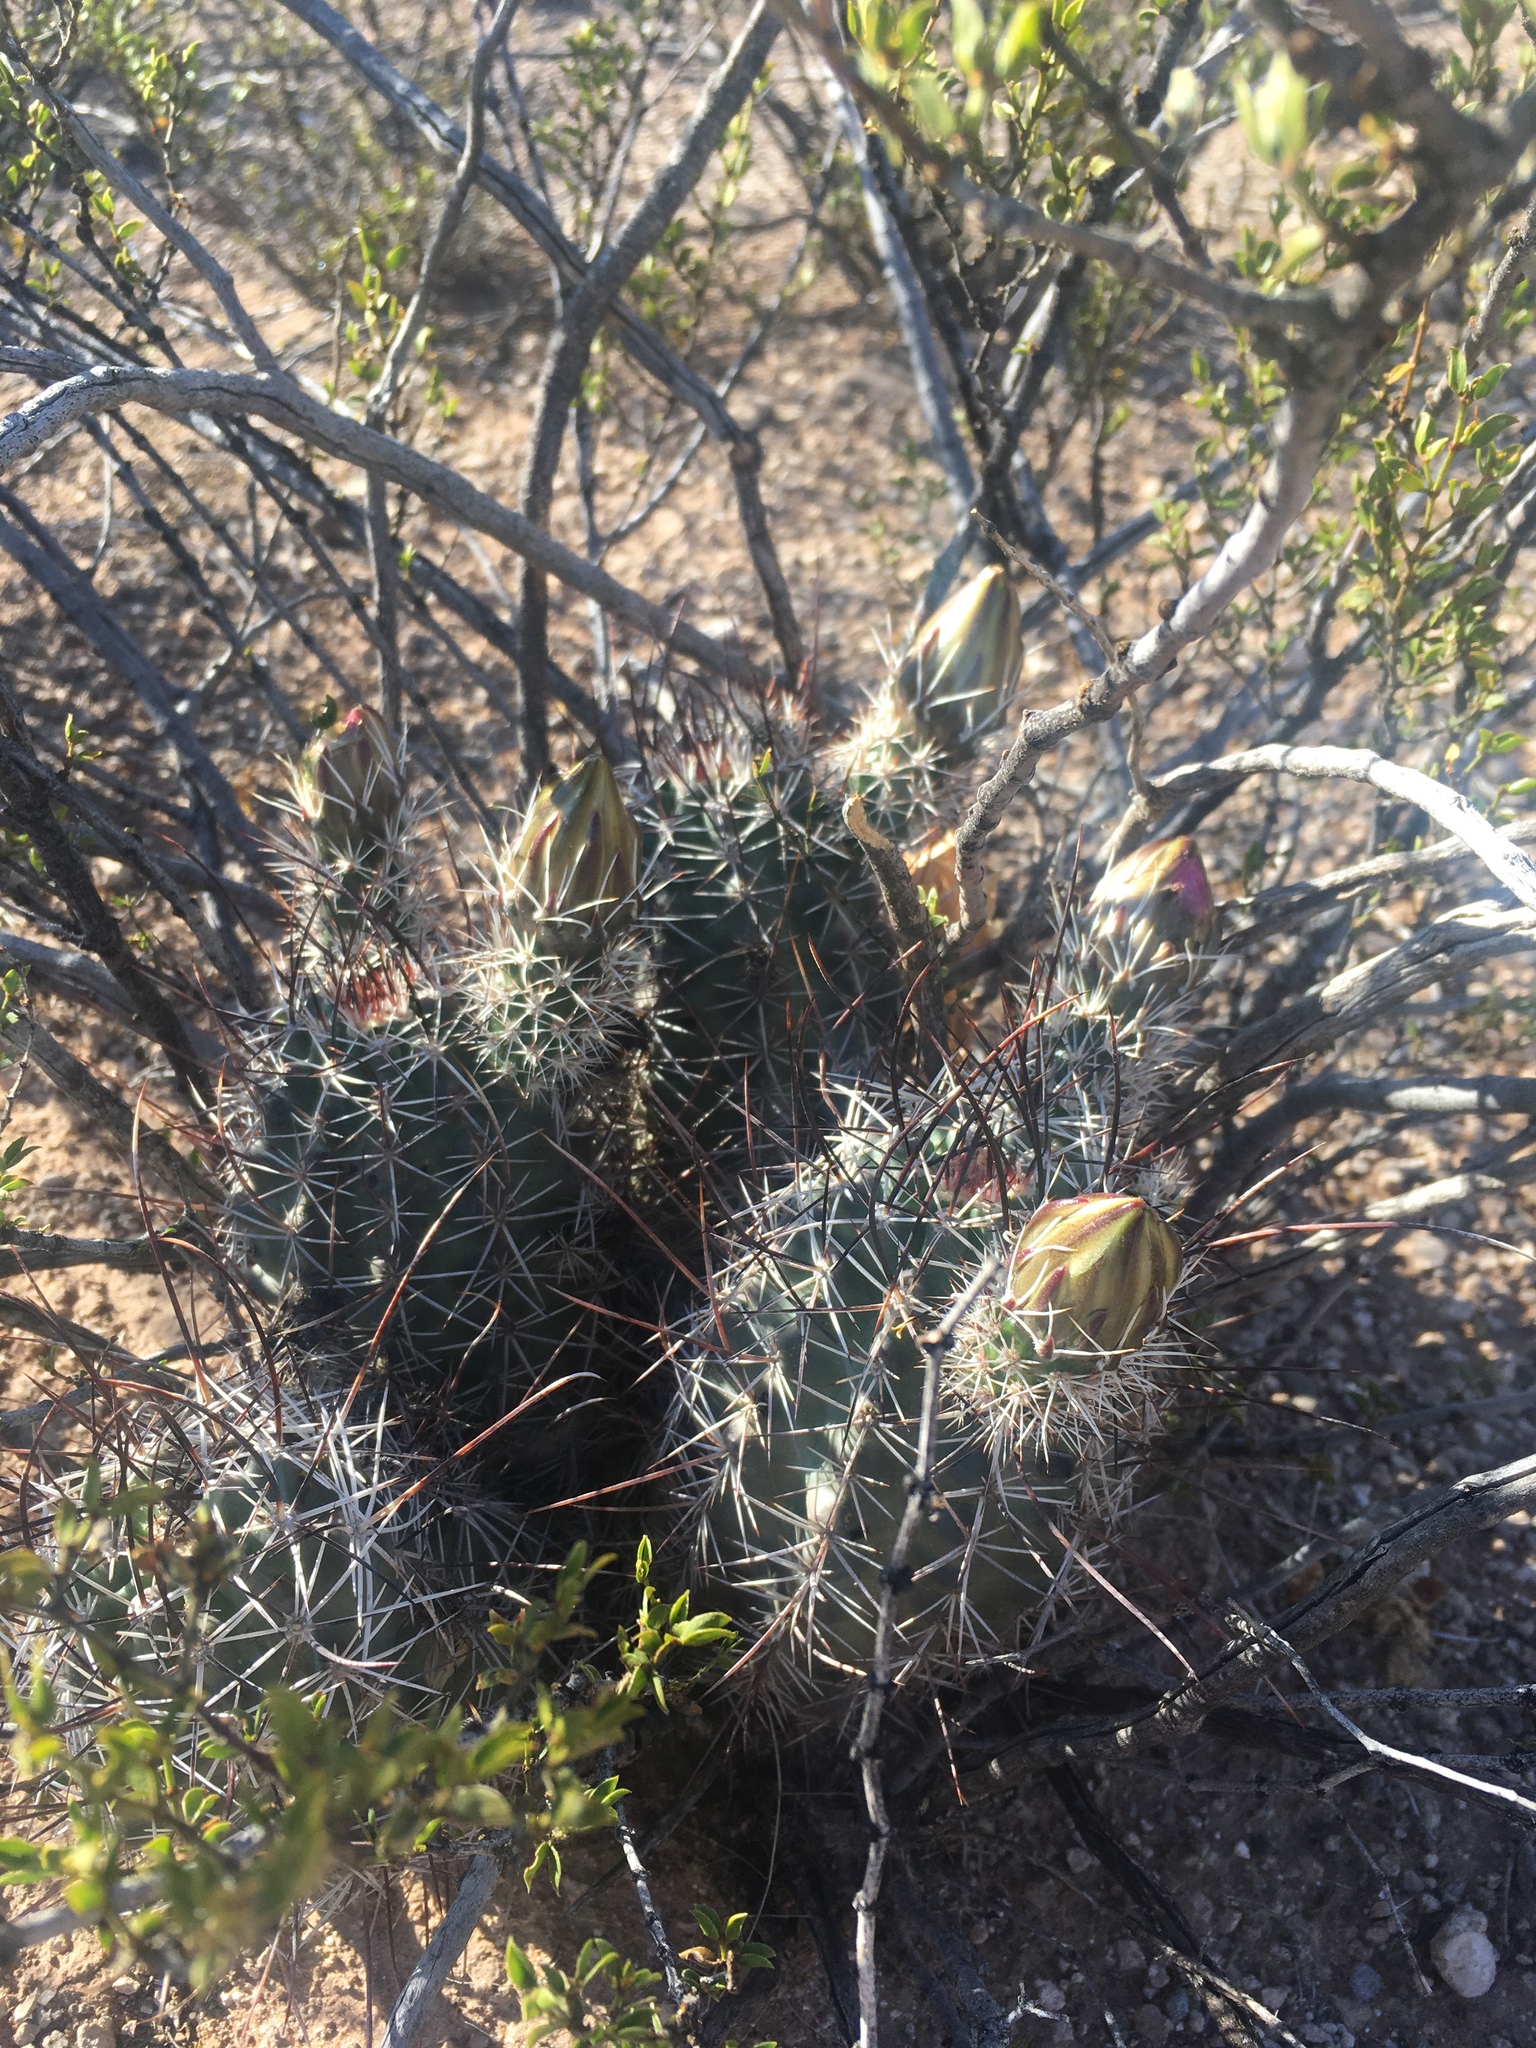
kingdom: Plantae
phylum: Tracheophyta
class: Magnoliopsida
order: Caryophyllales
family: Cactaceae
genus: Echinocereus
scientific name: Echinocereus fendleri
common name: Fendler's hedgehog cactus
